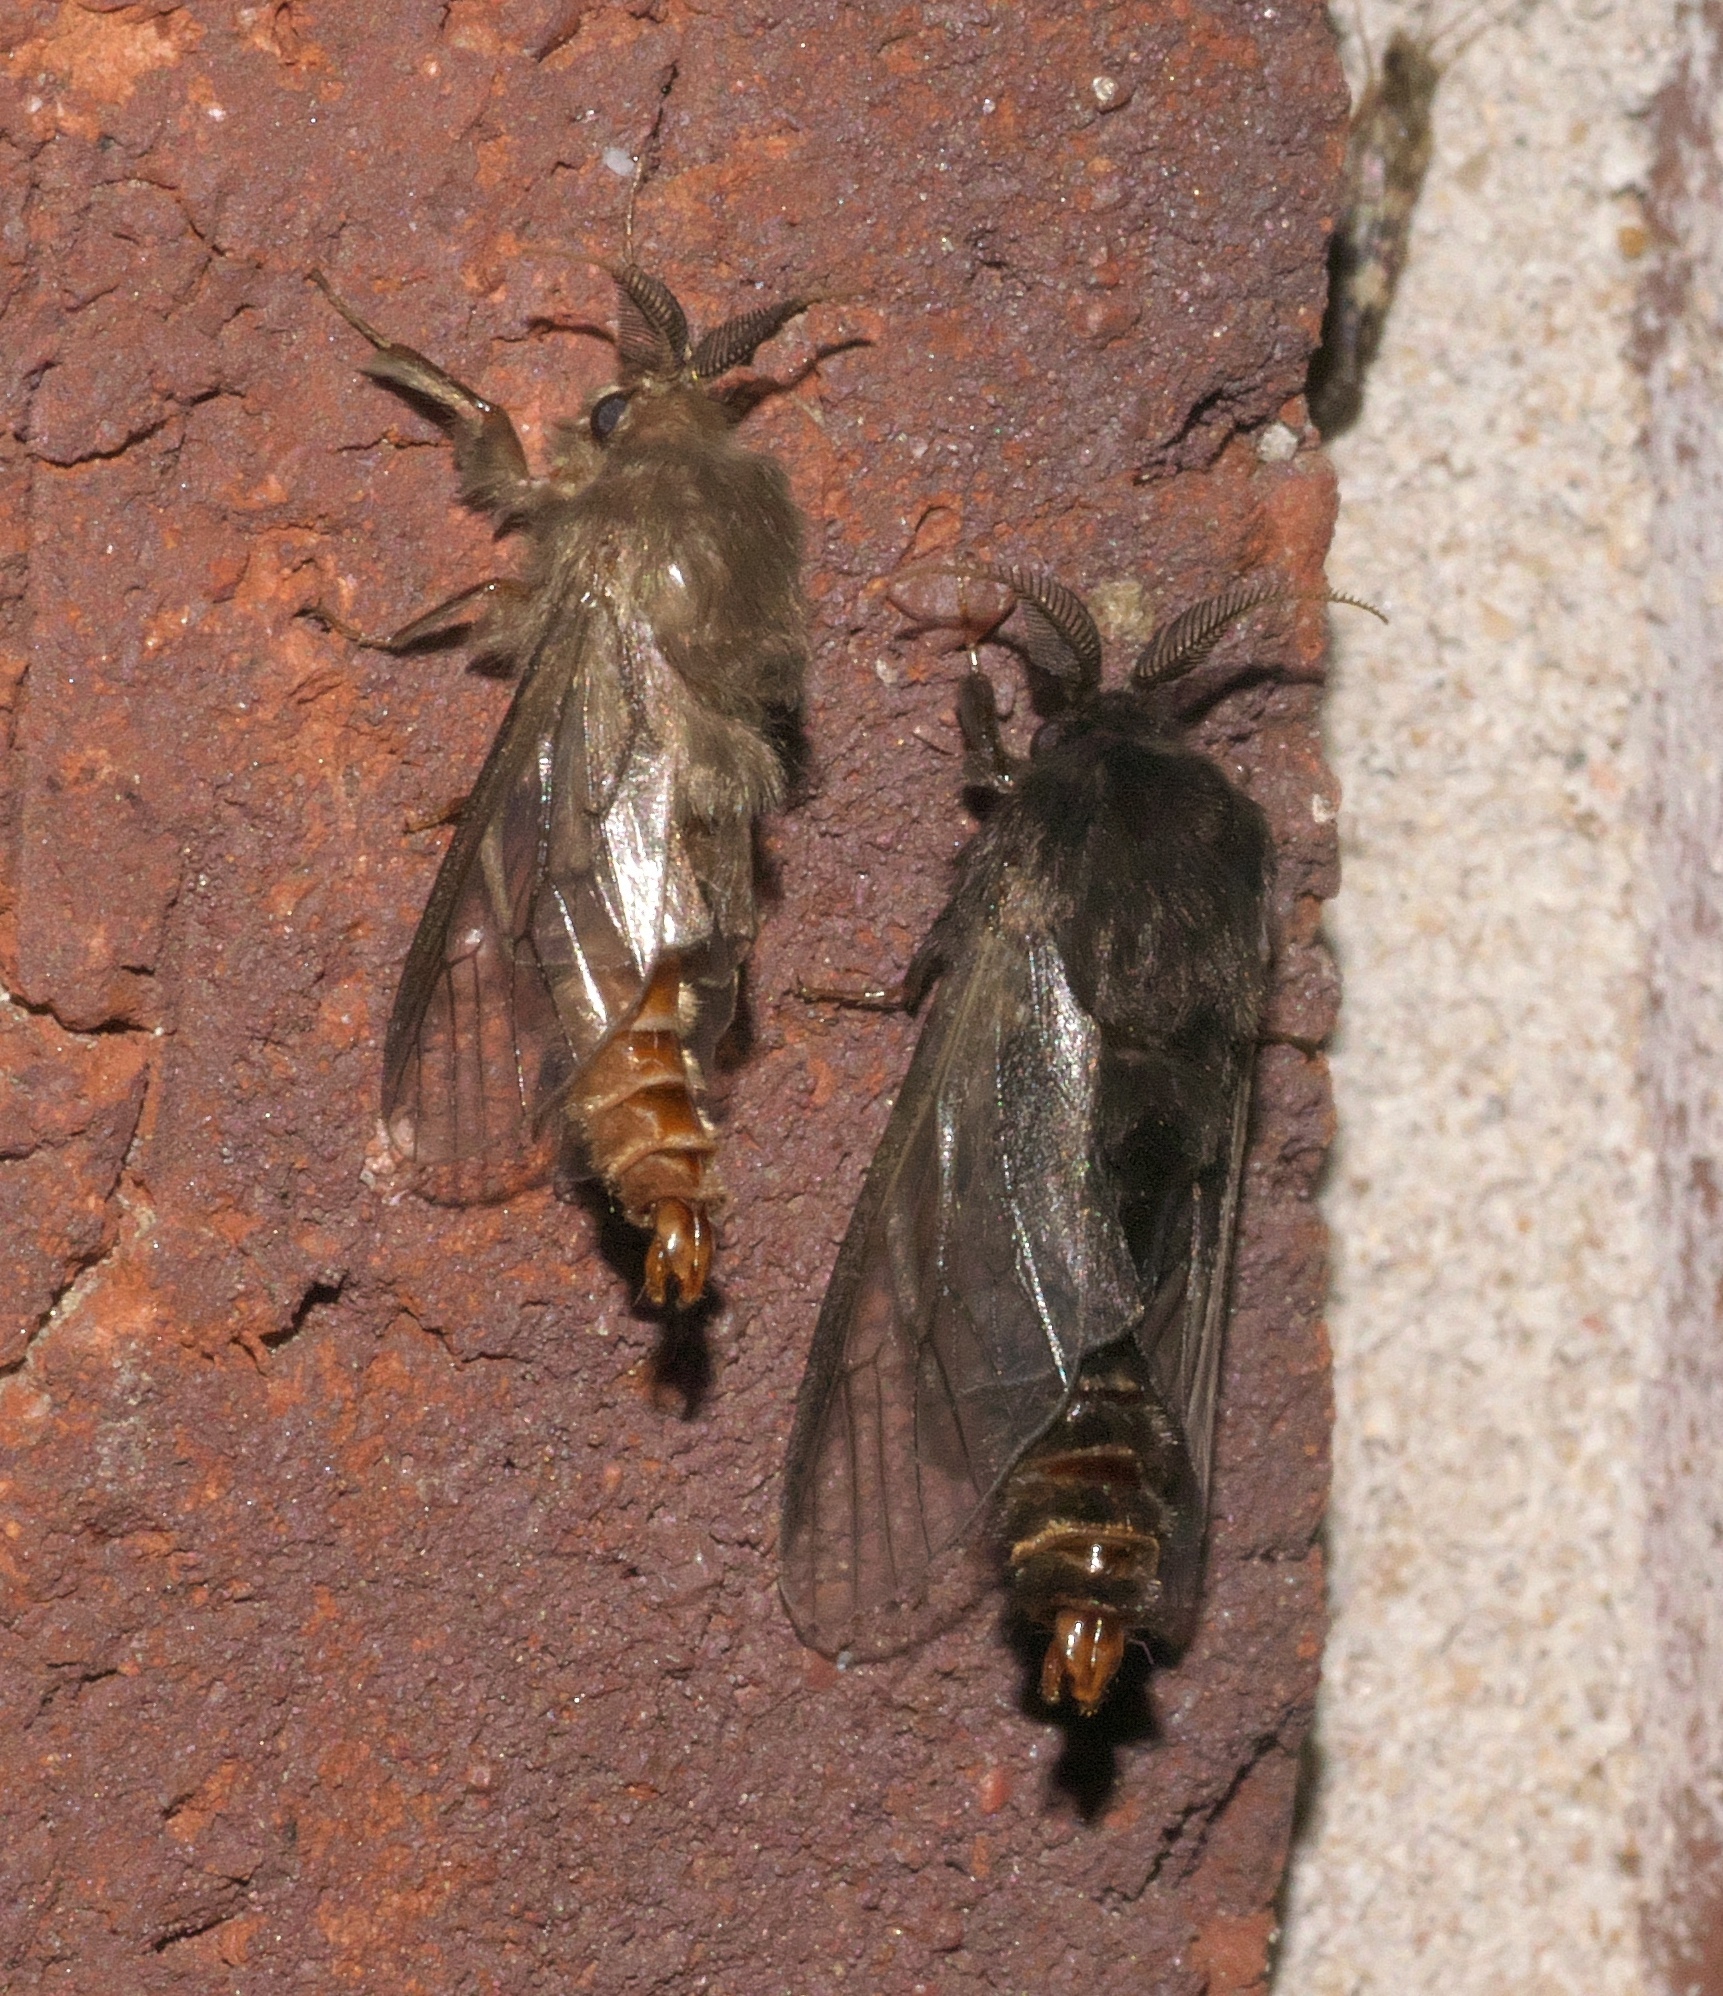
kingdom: Animalia
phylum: Arthropoda
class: Insecta
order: Lepidoptera
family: Psychidae
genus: Thyridopteryx
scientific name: Thyridopteryx ephemeraeformis
